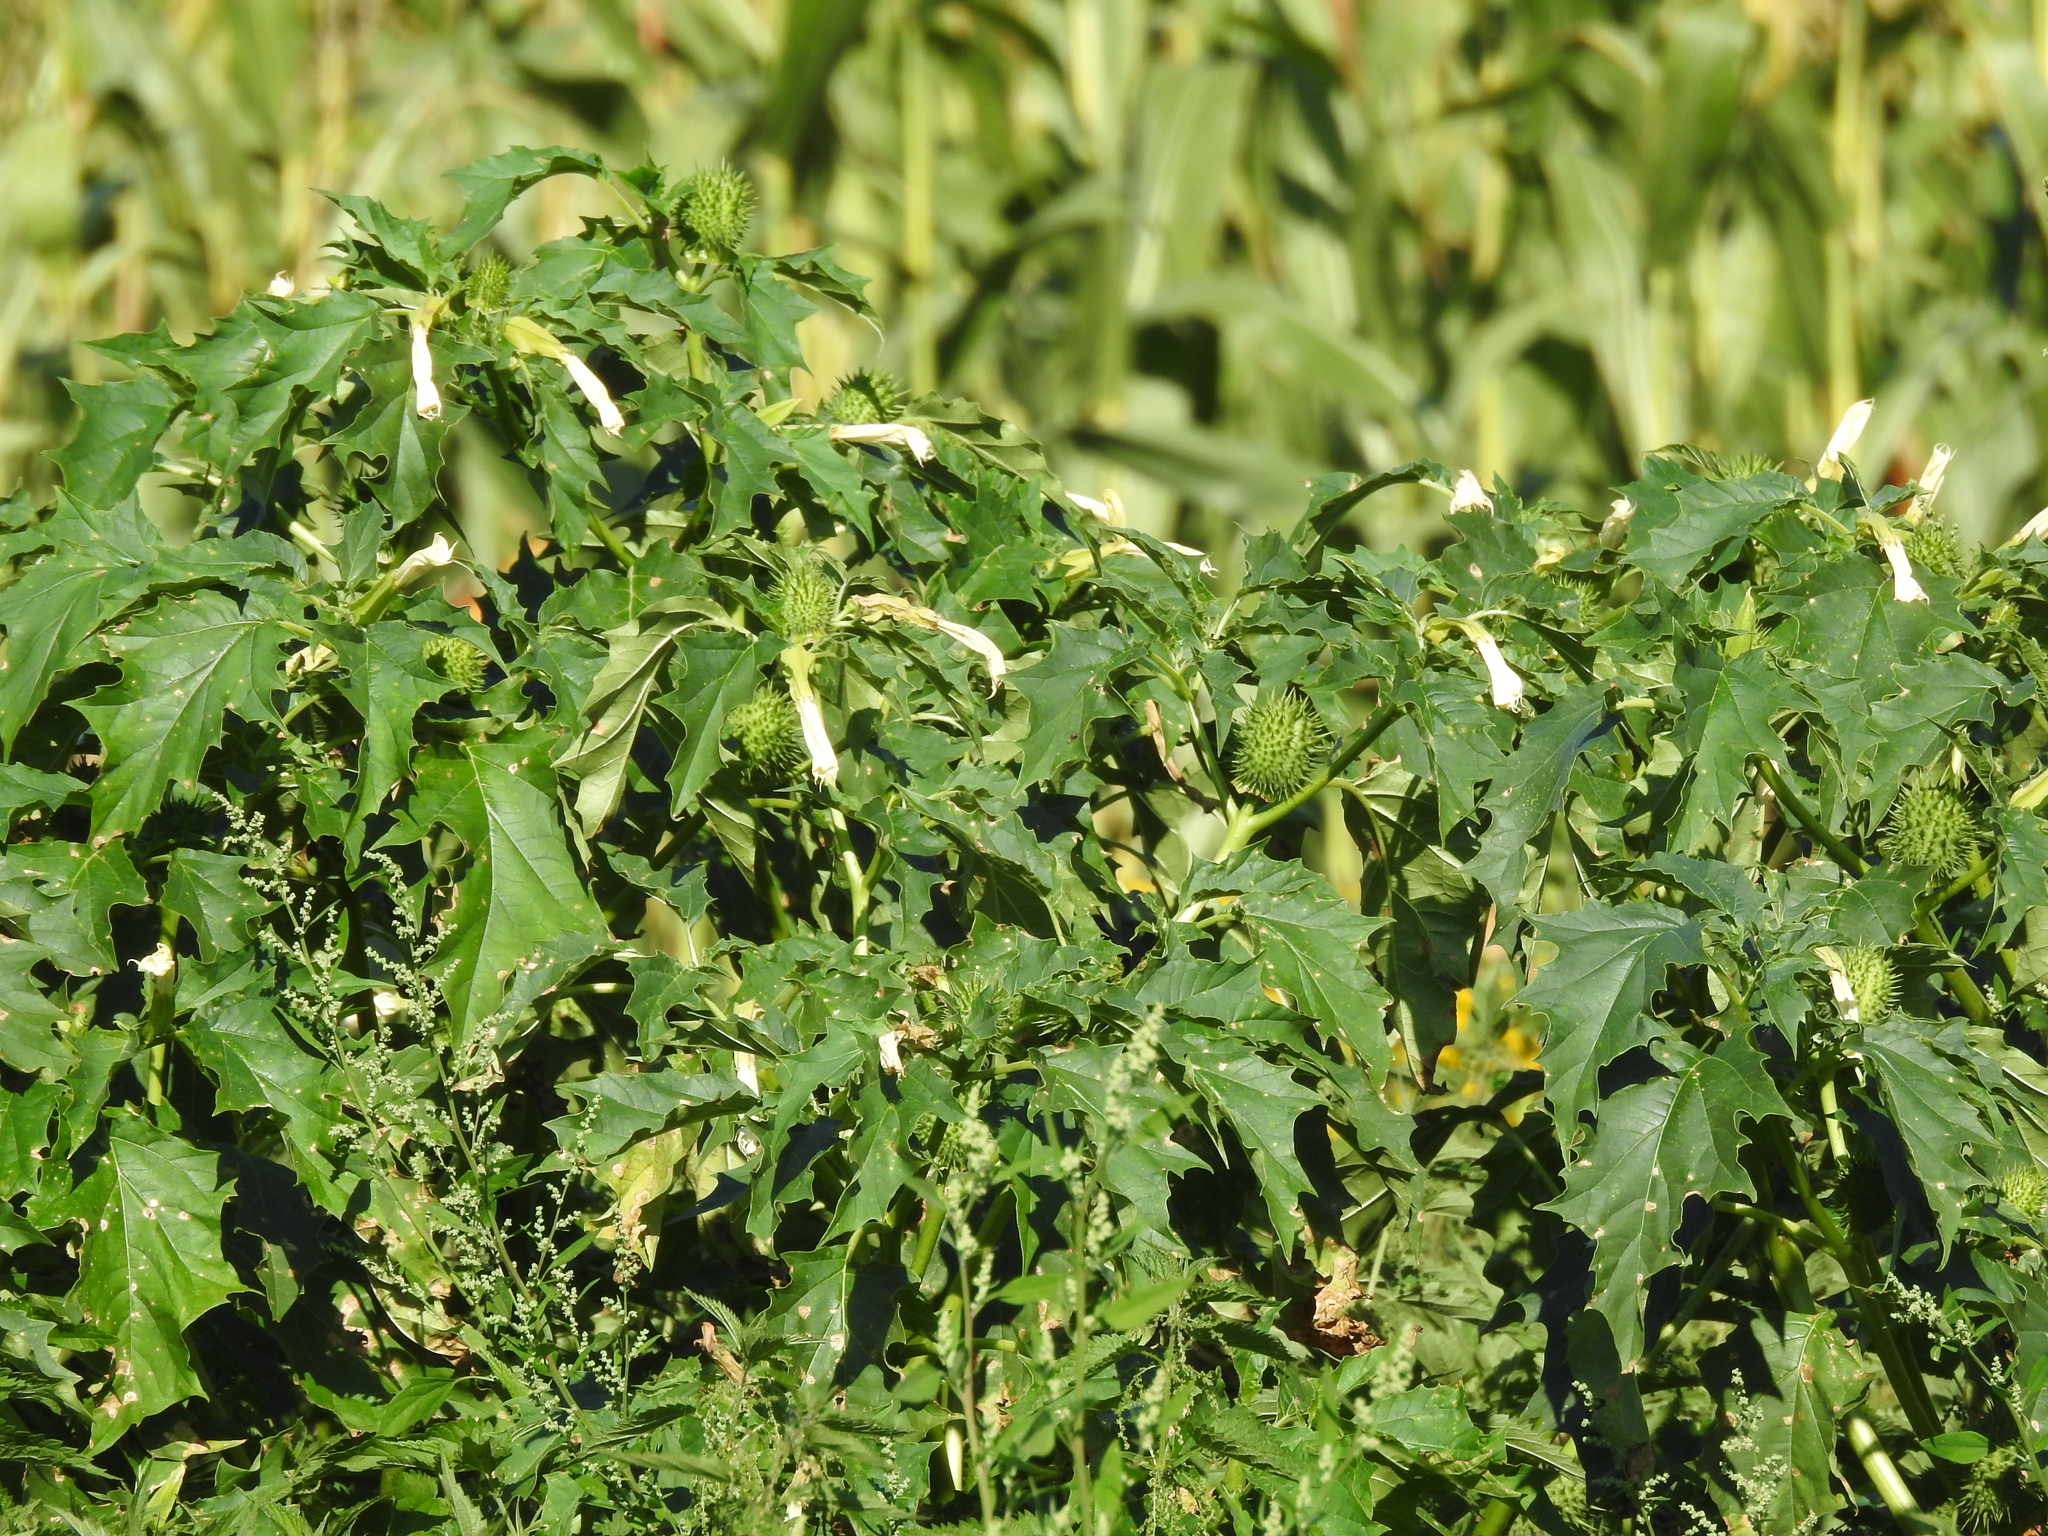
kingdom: Plantae
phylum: Tracheophyta
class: Magnoliopsida
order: Solanales
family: Solanaceae
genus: Datura
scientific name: Datura stramonium
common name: Thorn-apple
